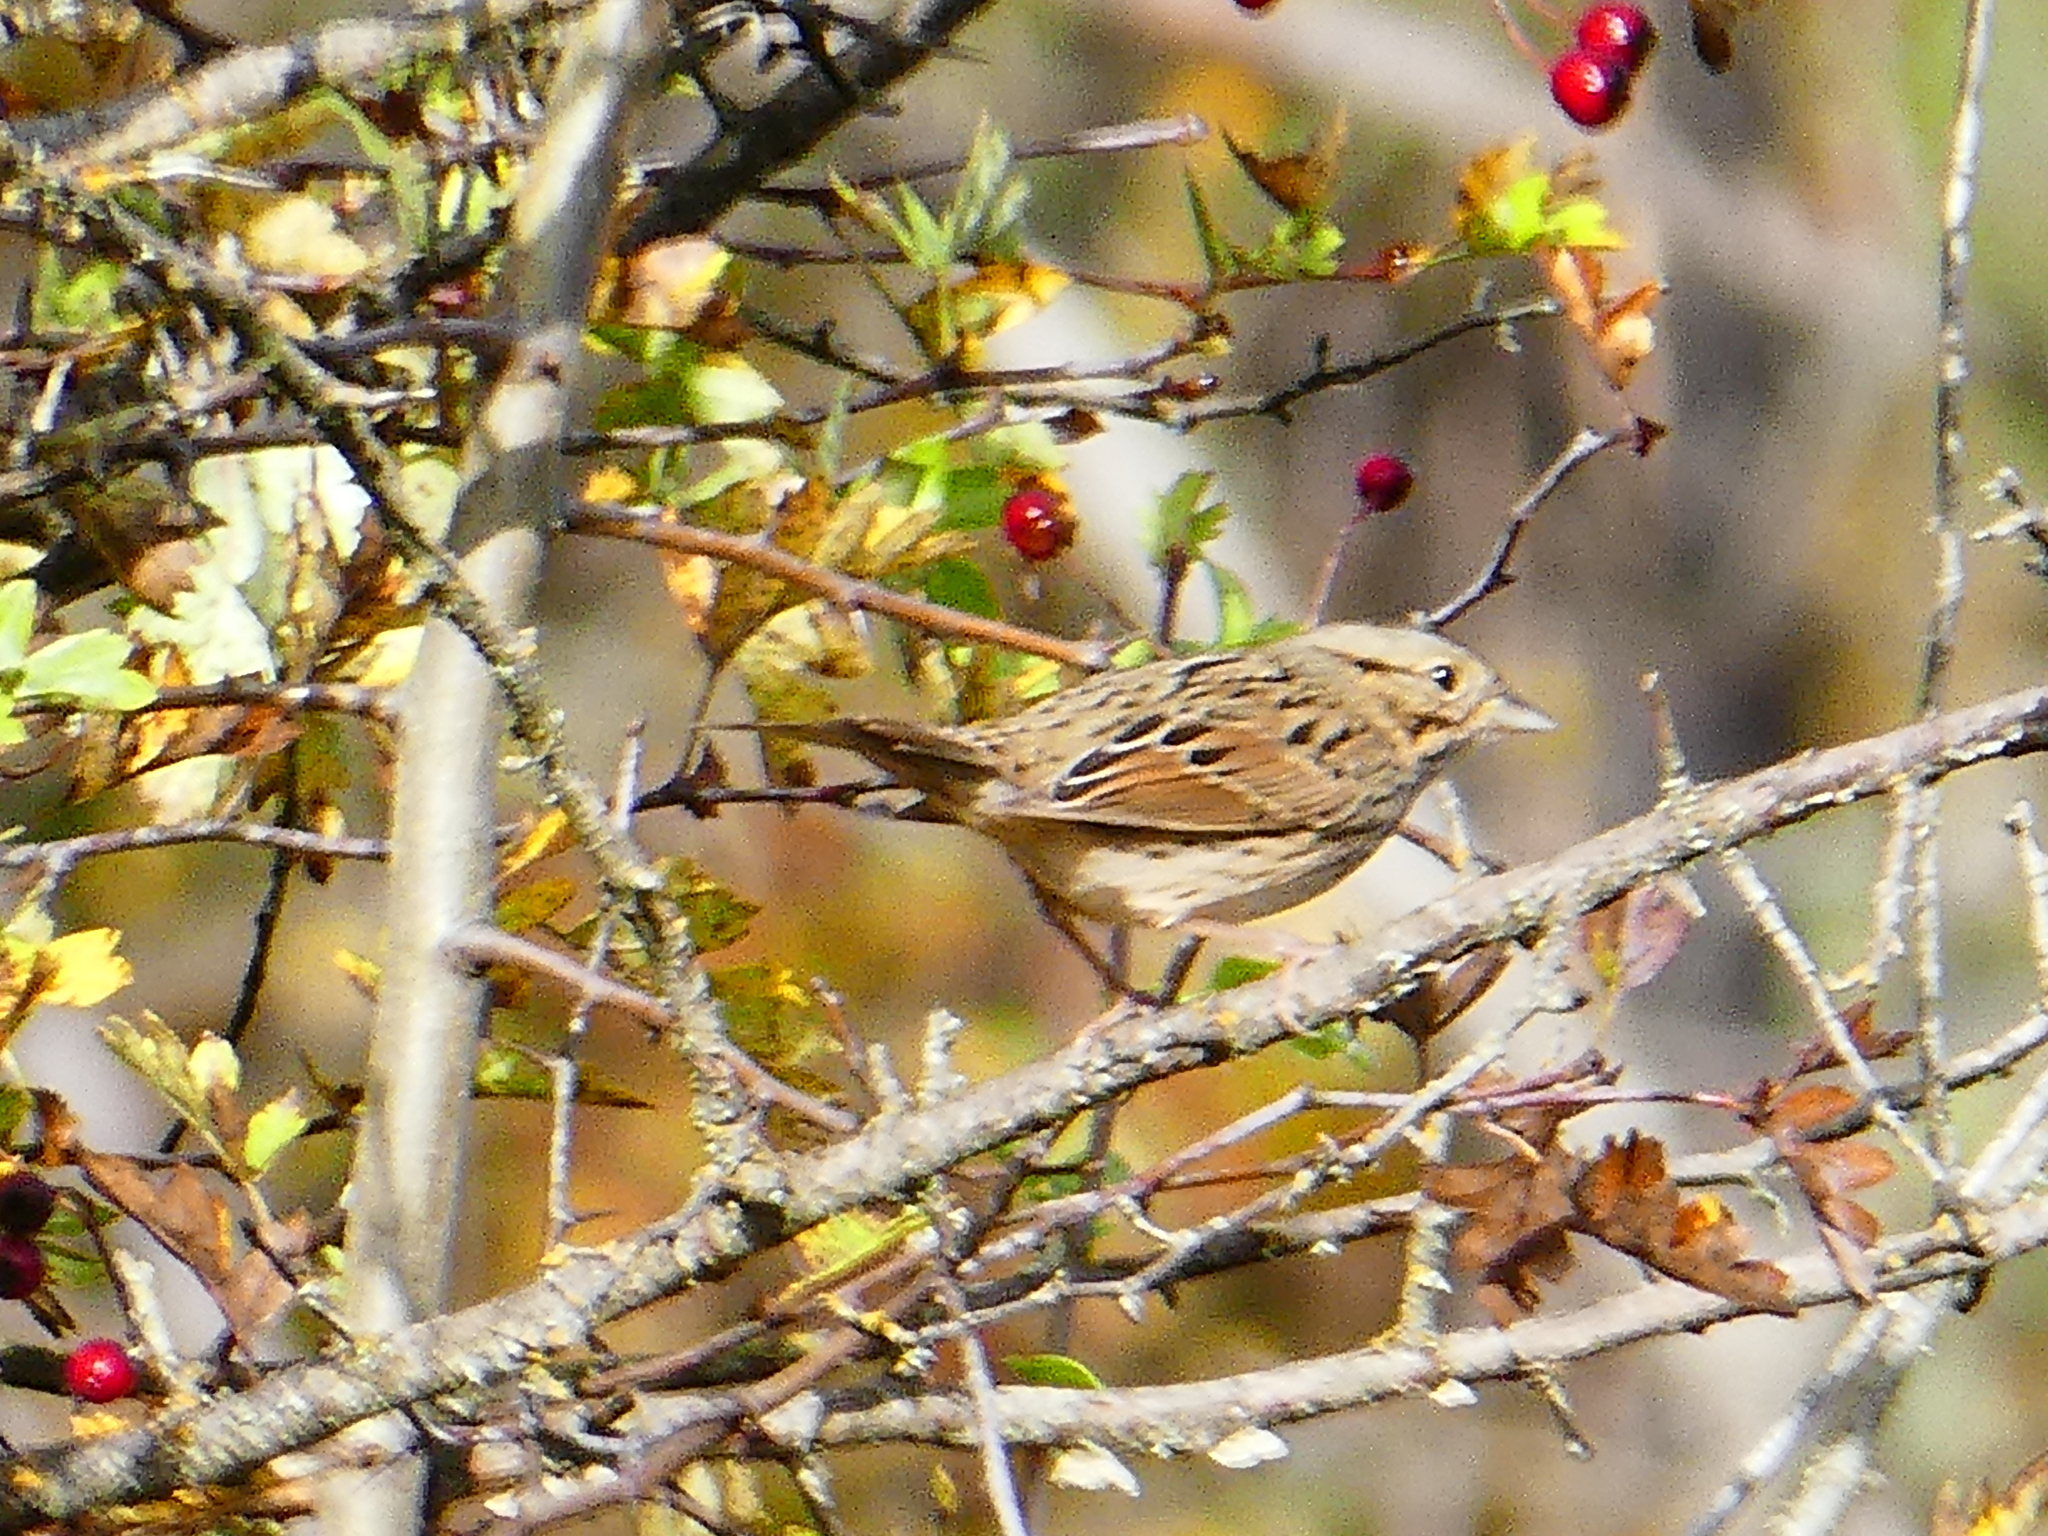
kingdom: Animalia
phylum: Chordata
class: Aves
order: Passeriformes
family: Passerellidae
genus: Melospiza
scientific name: Melospiza lincolnii
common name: Lincoln's sparrow
